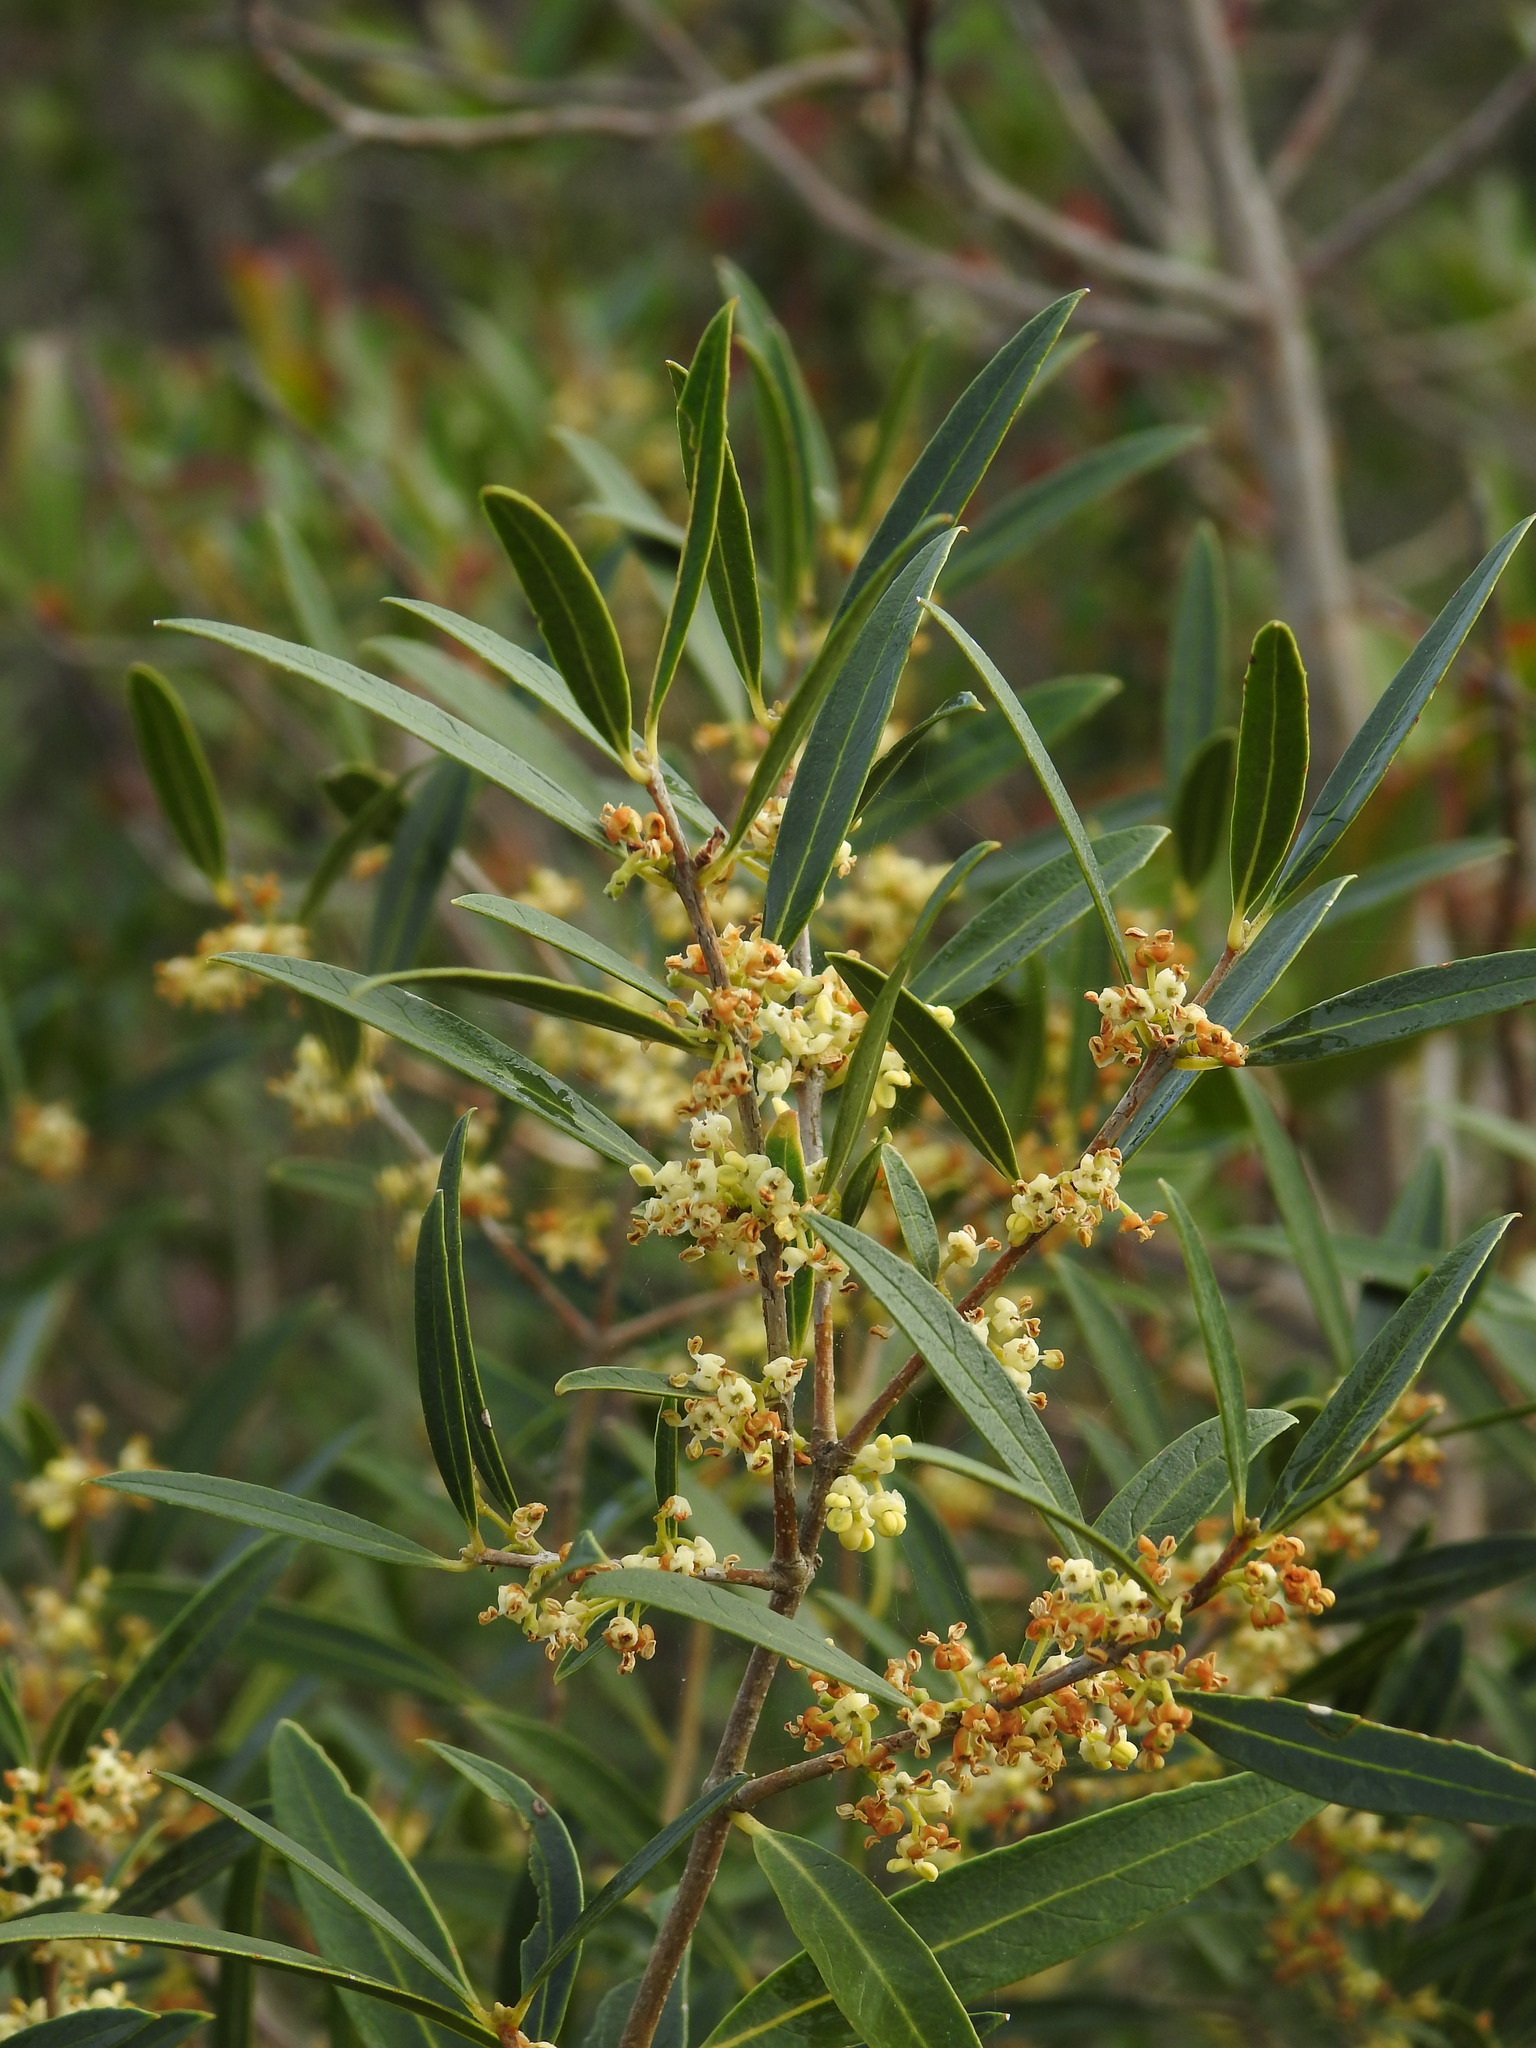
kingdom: Plantae
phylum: Tracheophyta
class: Magnoliopsida
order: Lamiales
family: Oleaceae
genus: Phillyrea
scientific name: Phillyrea angustifolia
